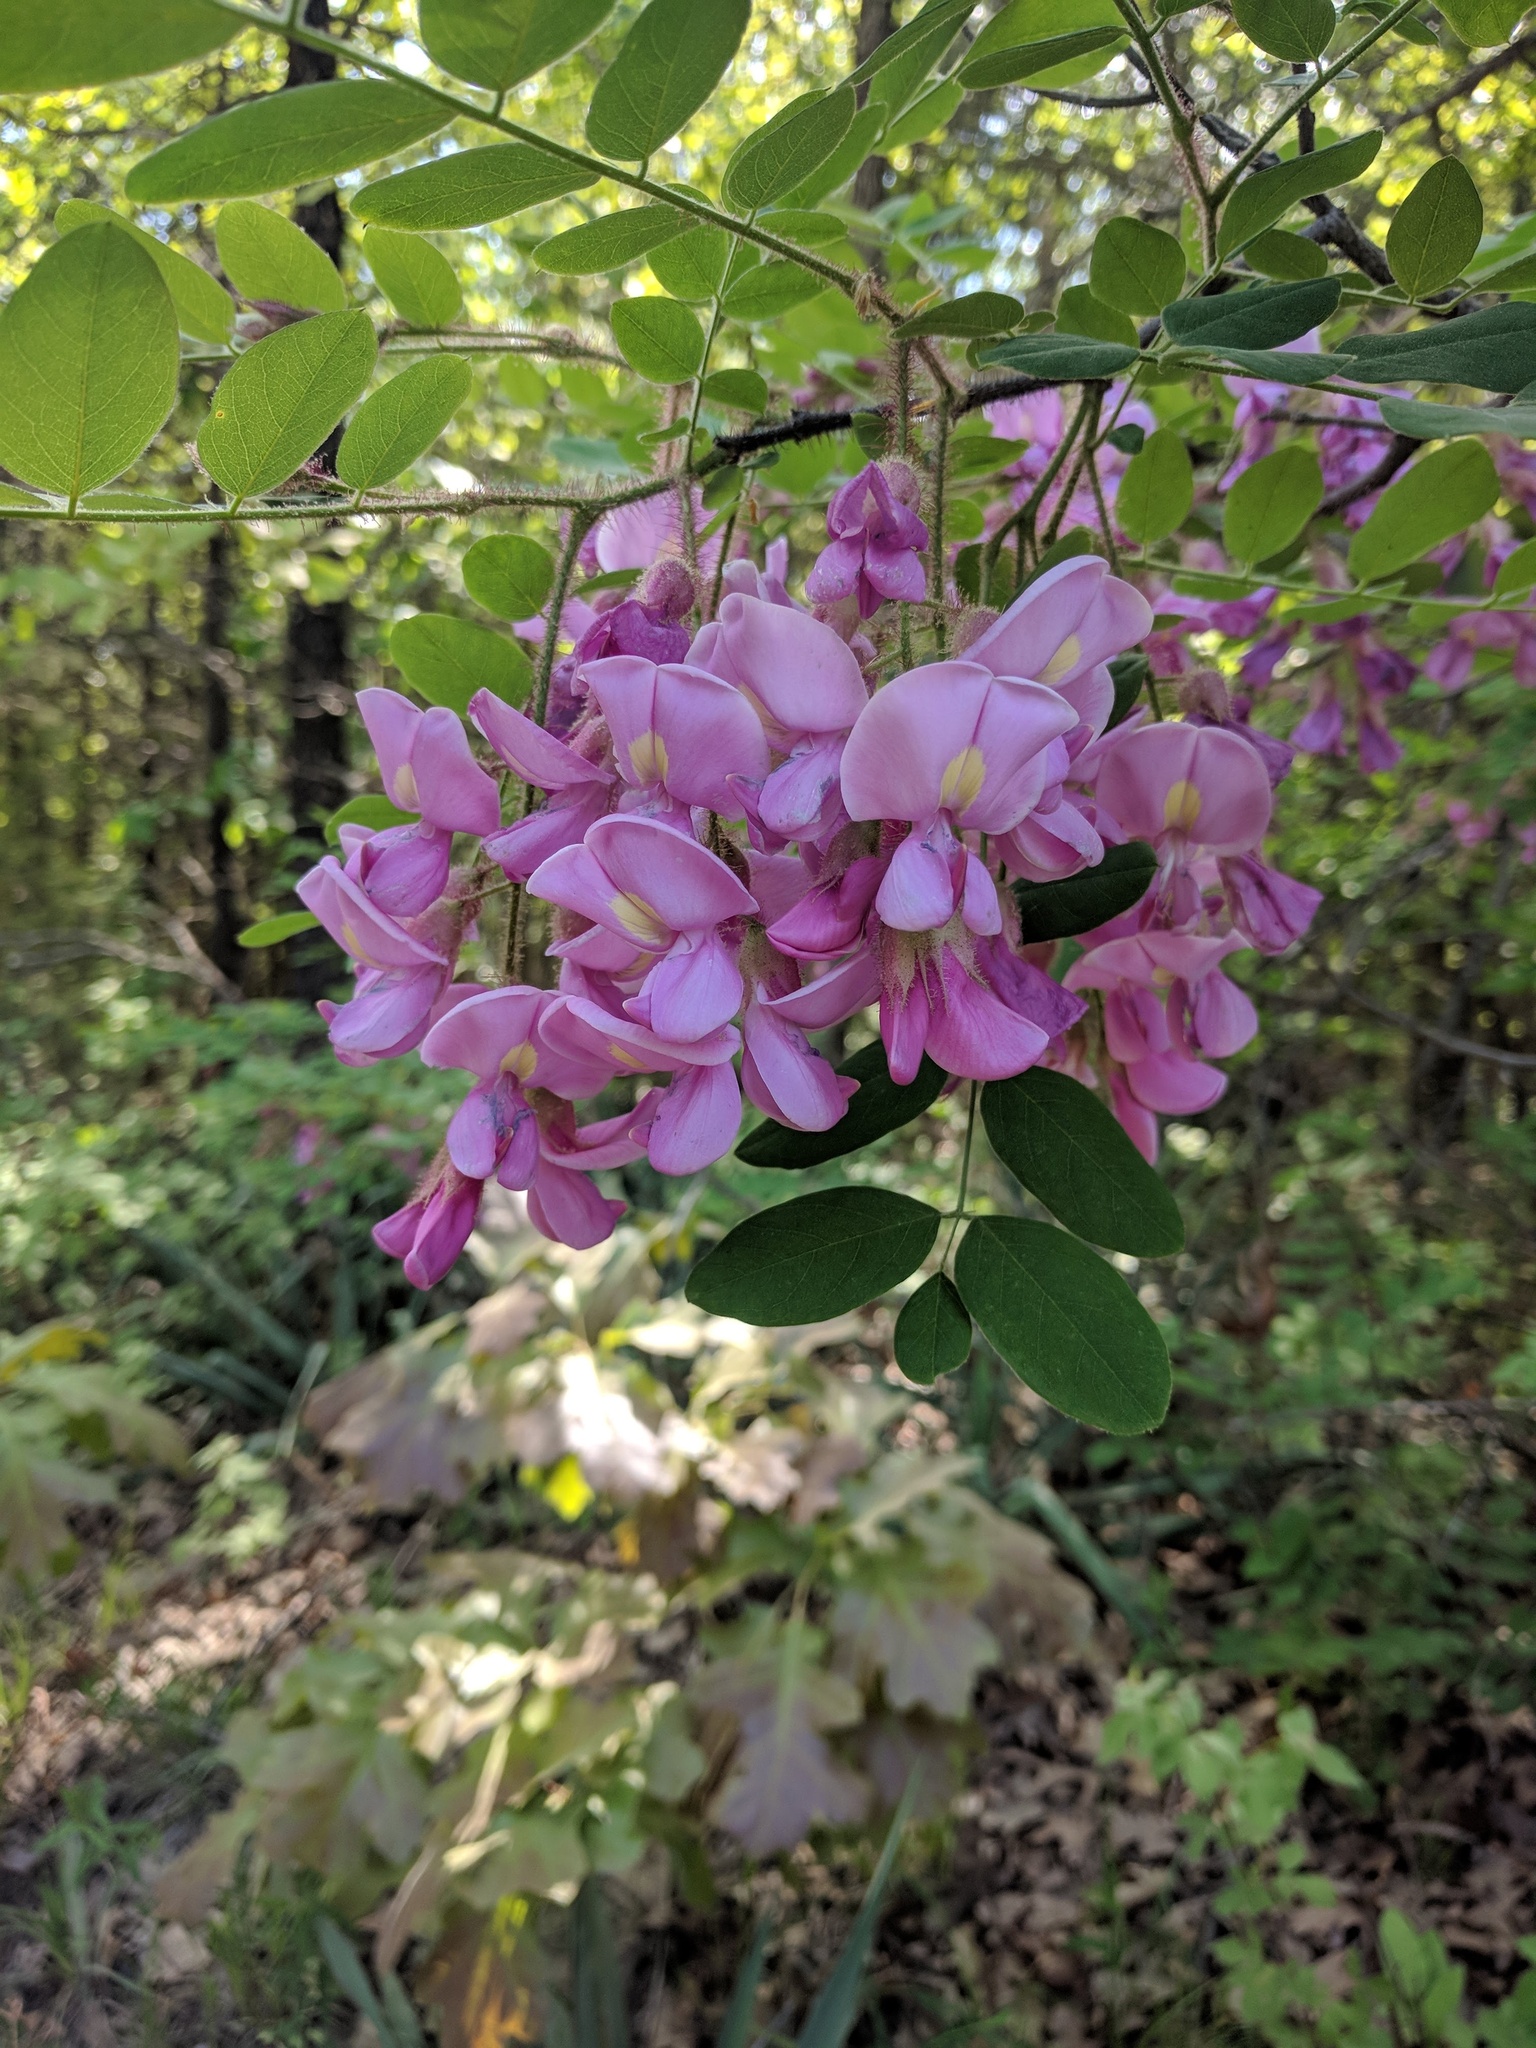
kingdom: Plantae
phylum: Tracheophyta
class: Magnoliopsida
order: Fabales
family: Fabaceae
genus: Robinia
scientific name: Robinia hispida
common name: Bristly locust
